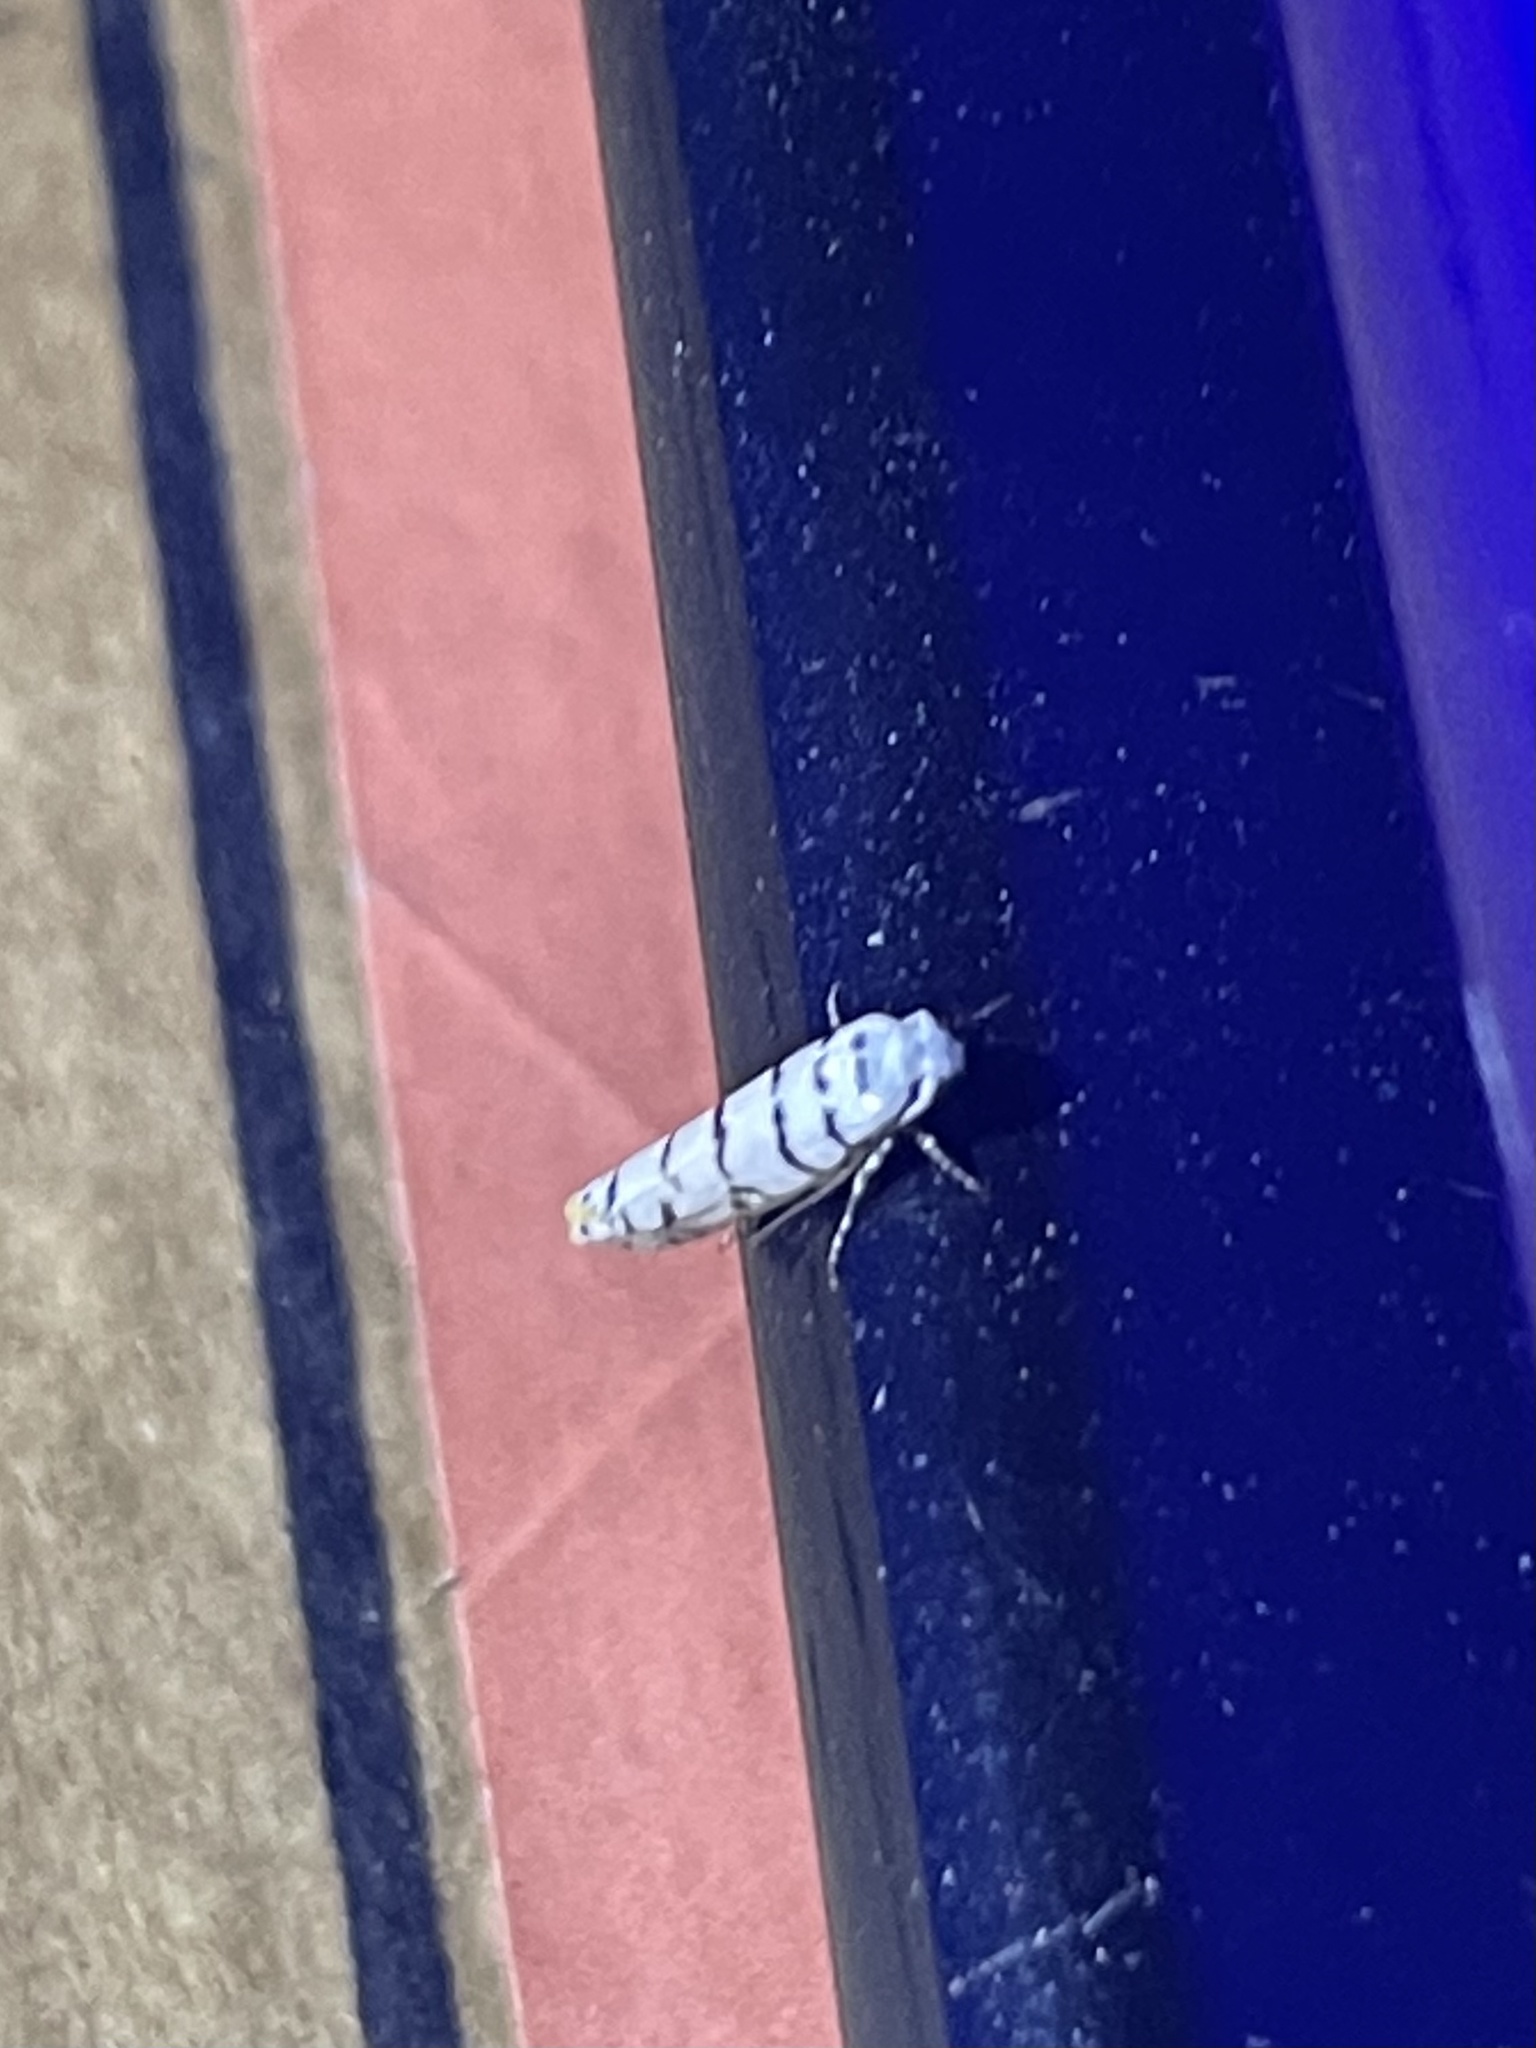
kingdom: Animalia
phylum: Arthropoda
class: Insecta
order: Lepidoptera
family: Ethmiidae
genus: Ethmia
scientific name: Ethmia delliella
